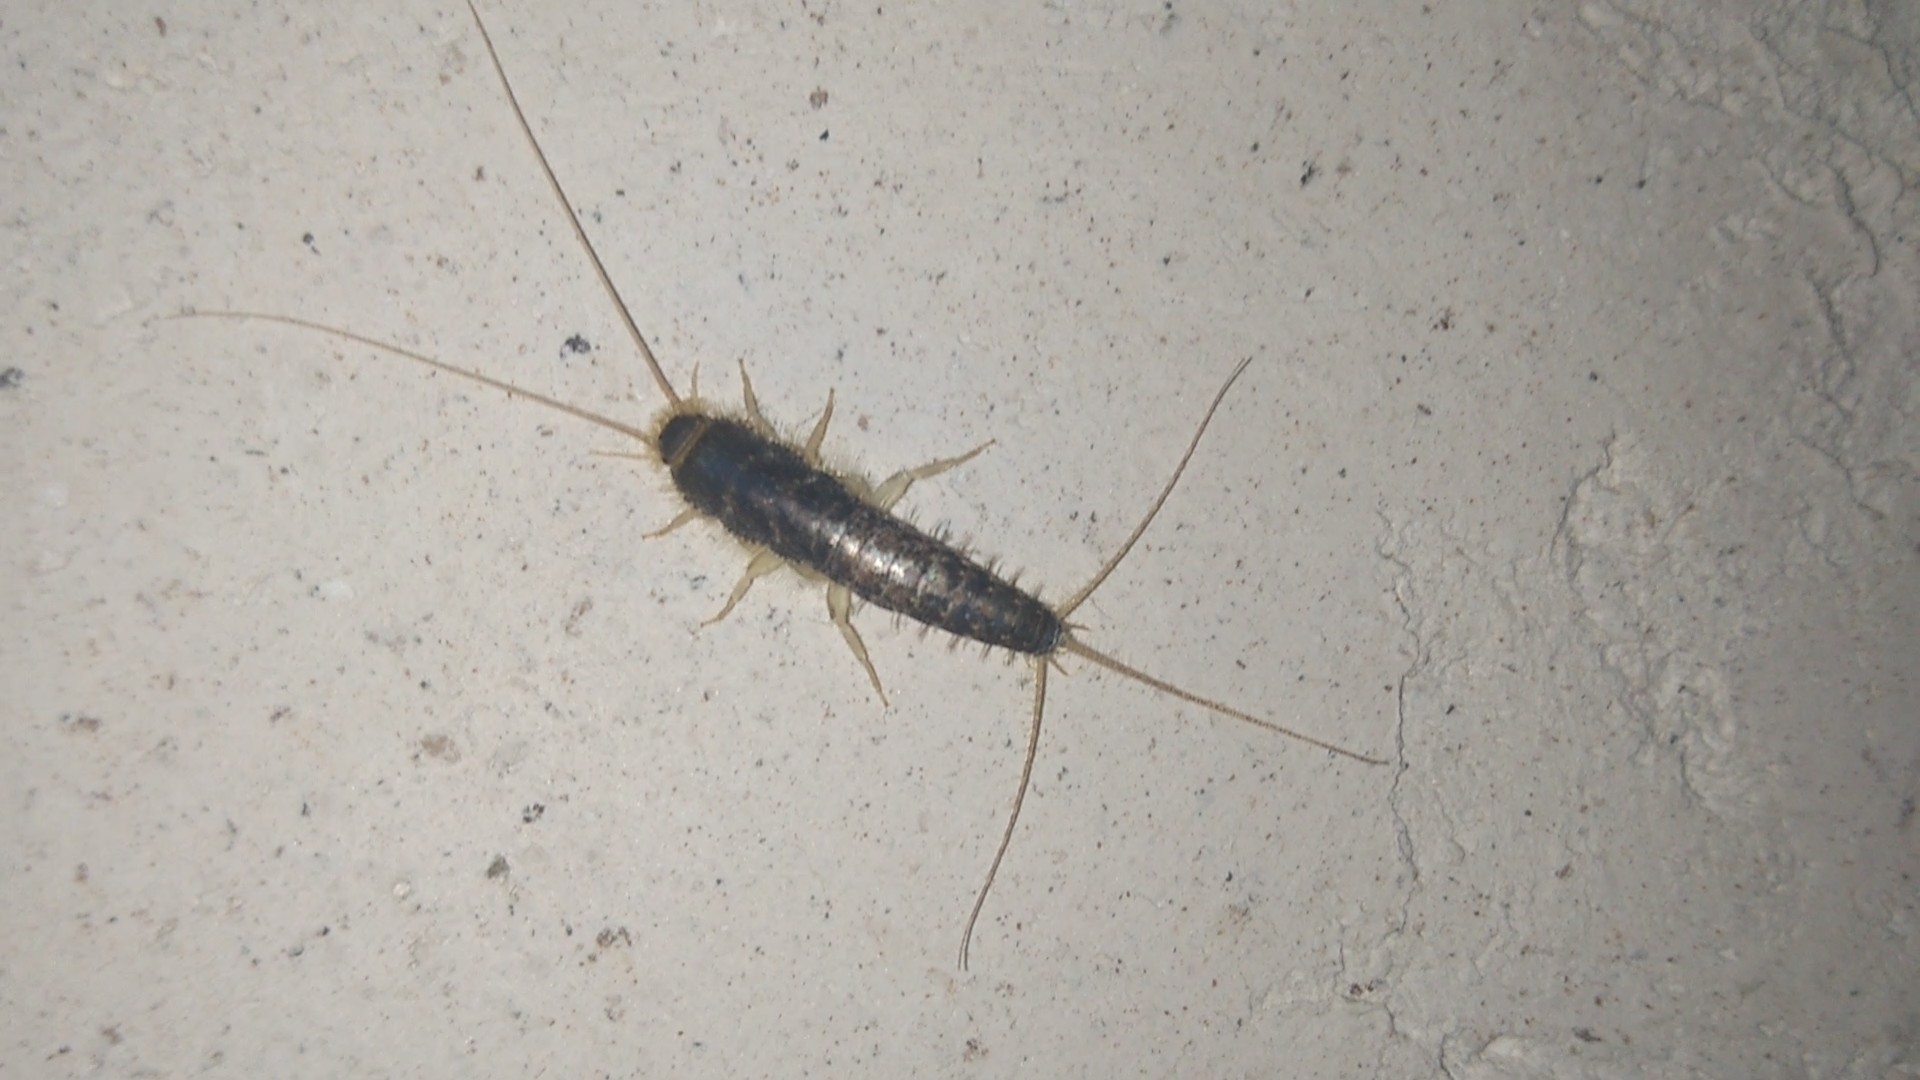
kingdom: Animalia
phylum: Arthropoda
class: Insecta
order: Zygentoma
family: Lepismatidae
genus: Ctenolepisma
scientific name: Ctenolepisma longicaudatum
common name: Silverfish
